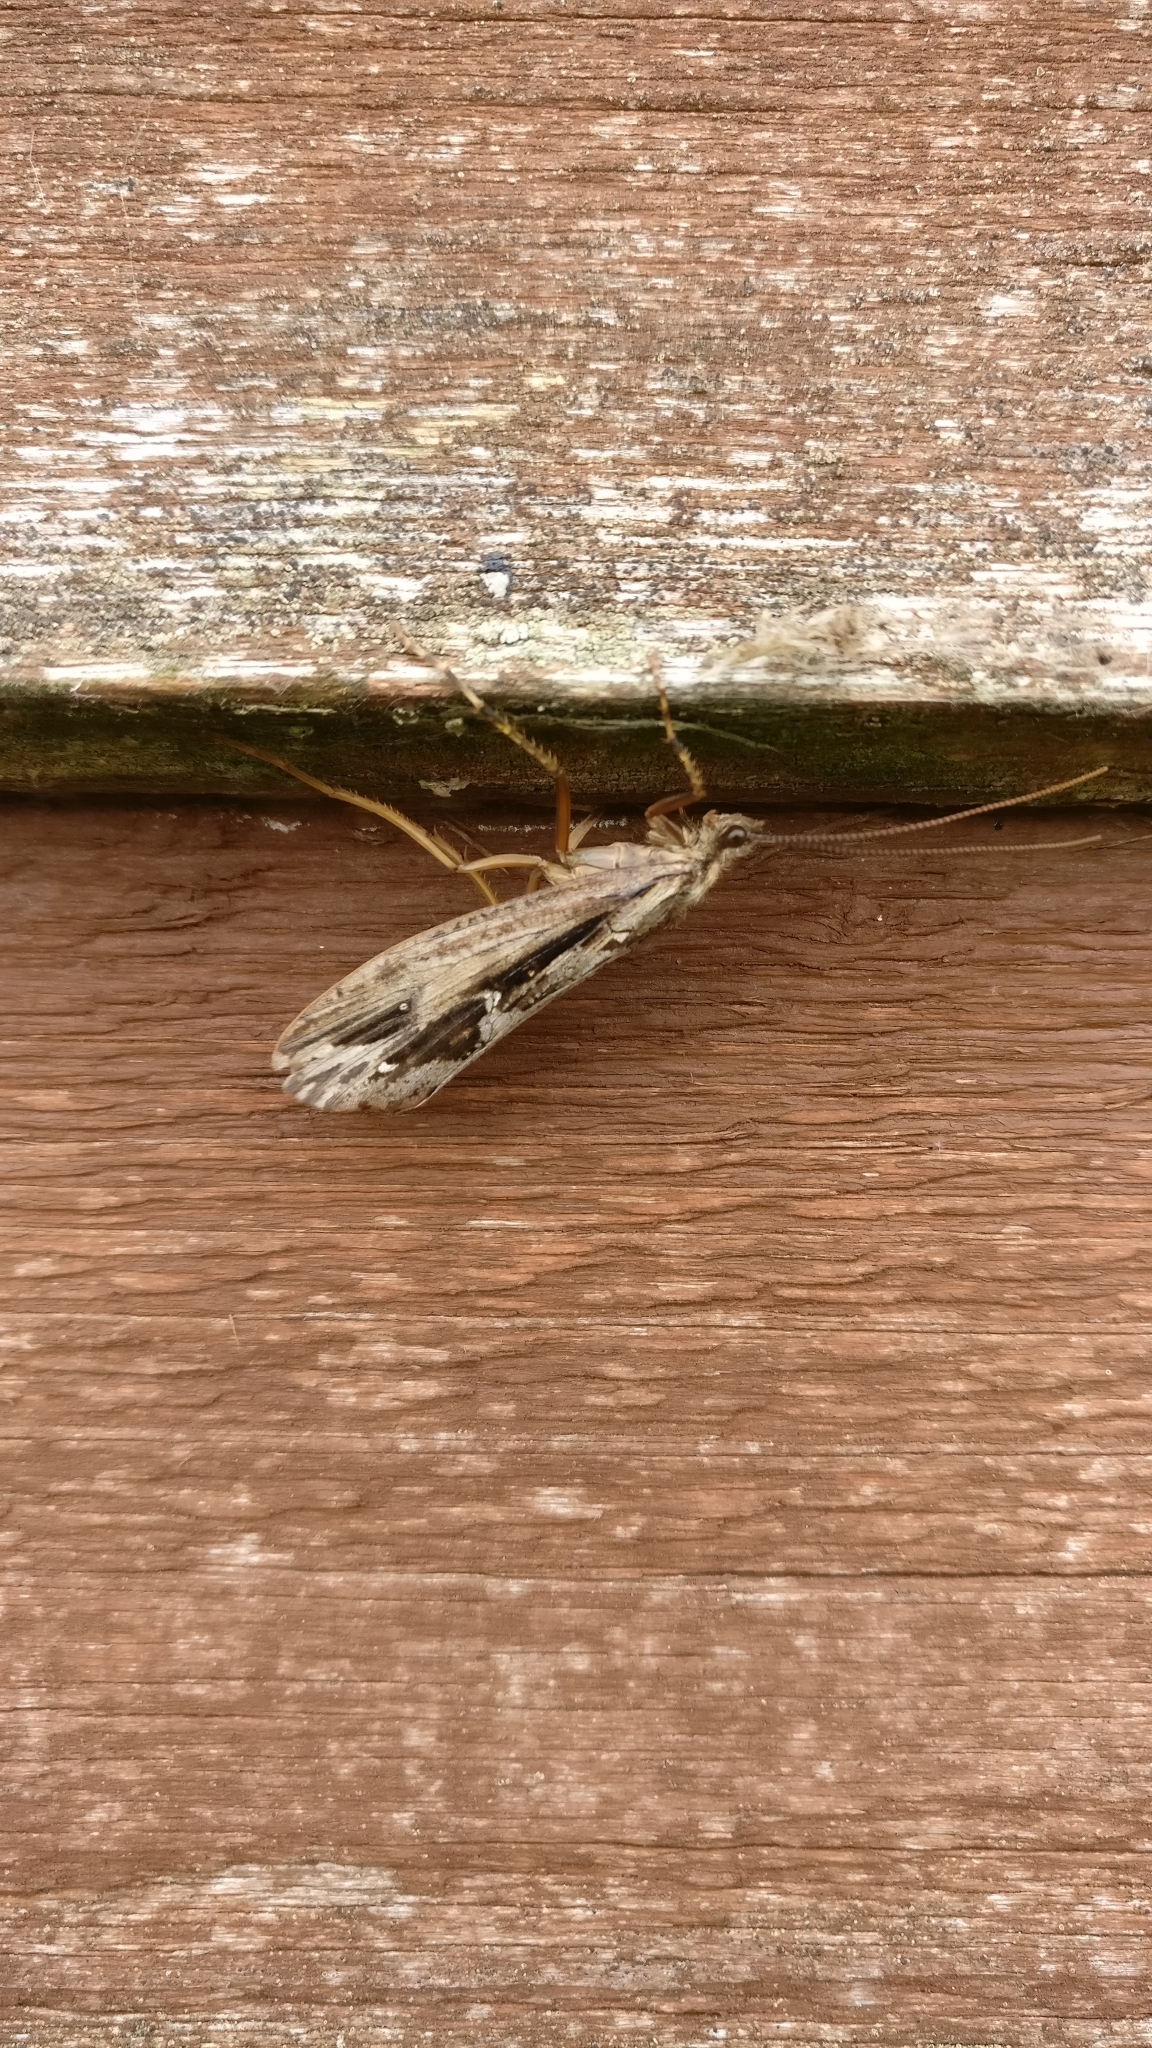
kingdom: Animalia
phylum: Arthropoda
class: Insecta
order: Trichoptera
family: Phryganeidae
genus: Phryganea
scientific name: Phryganea grandis
